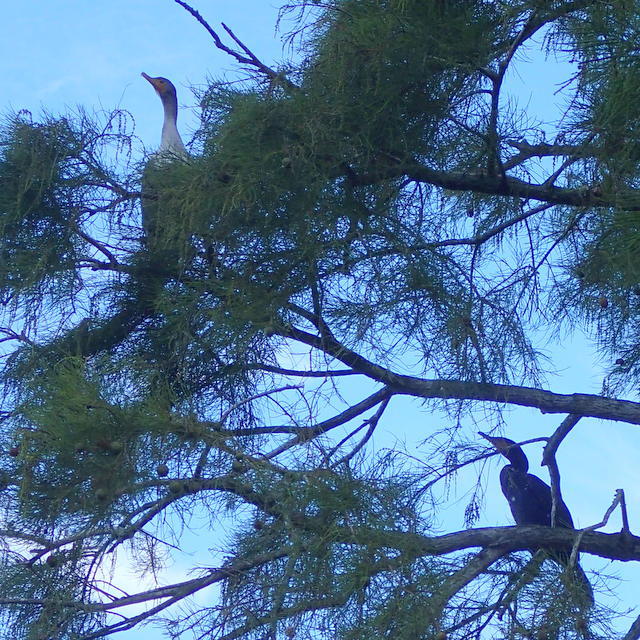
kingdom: Animalia
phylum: Chordata
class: Aves
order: Suliformes
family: Phalacrocoracidae
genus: Phalacrocorax
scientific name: Phalacrocorax auritus
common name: Double-crested cormorant
